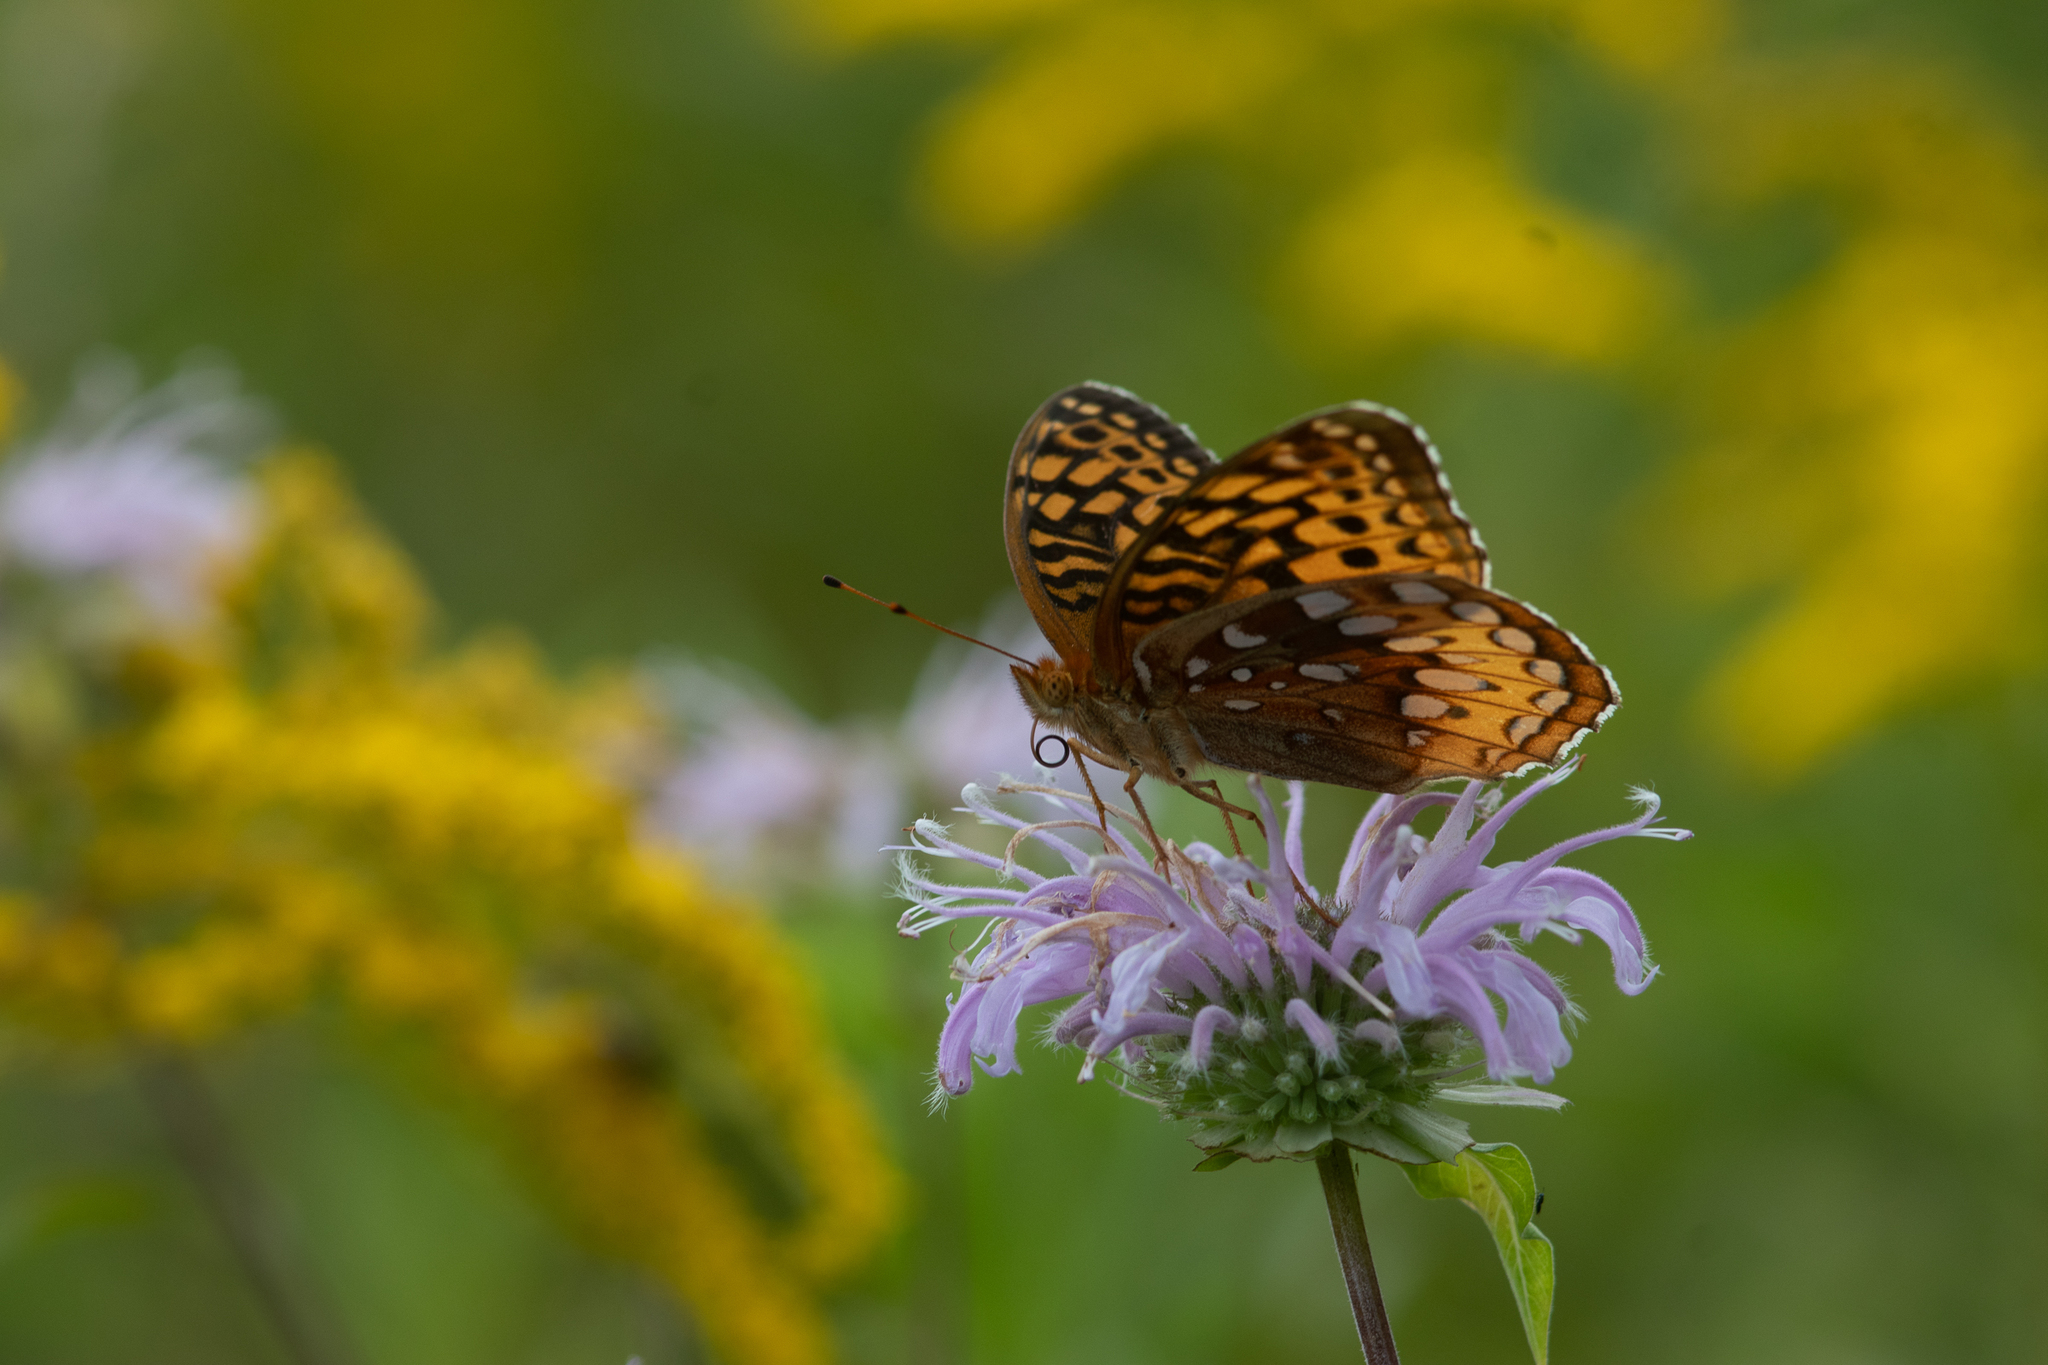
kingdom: Animalia
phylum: Arthropoda
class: Insecta
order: Lepidoptera
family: Nymphalidae
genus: Speyeria
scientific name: Speyeria cybele
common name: Great spangled fritillary
